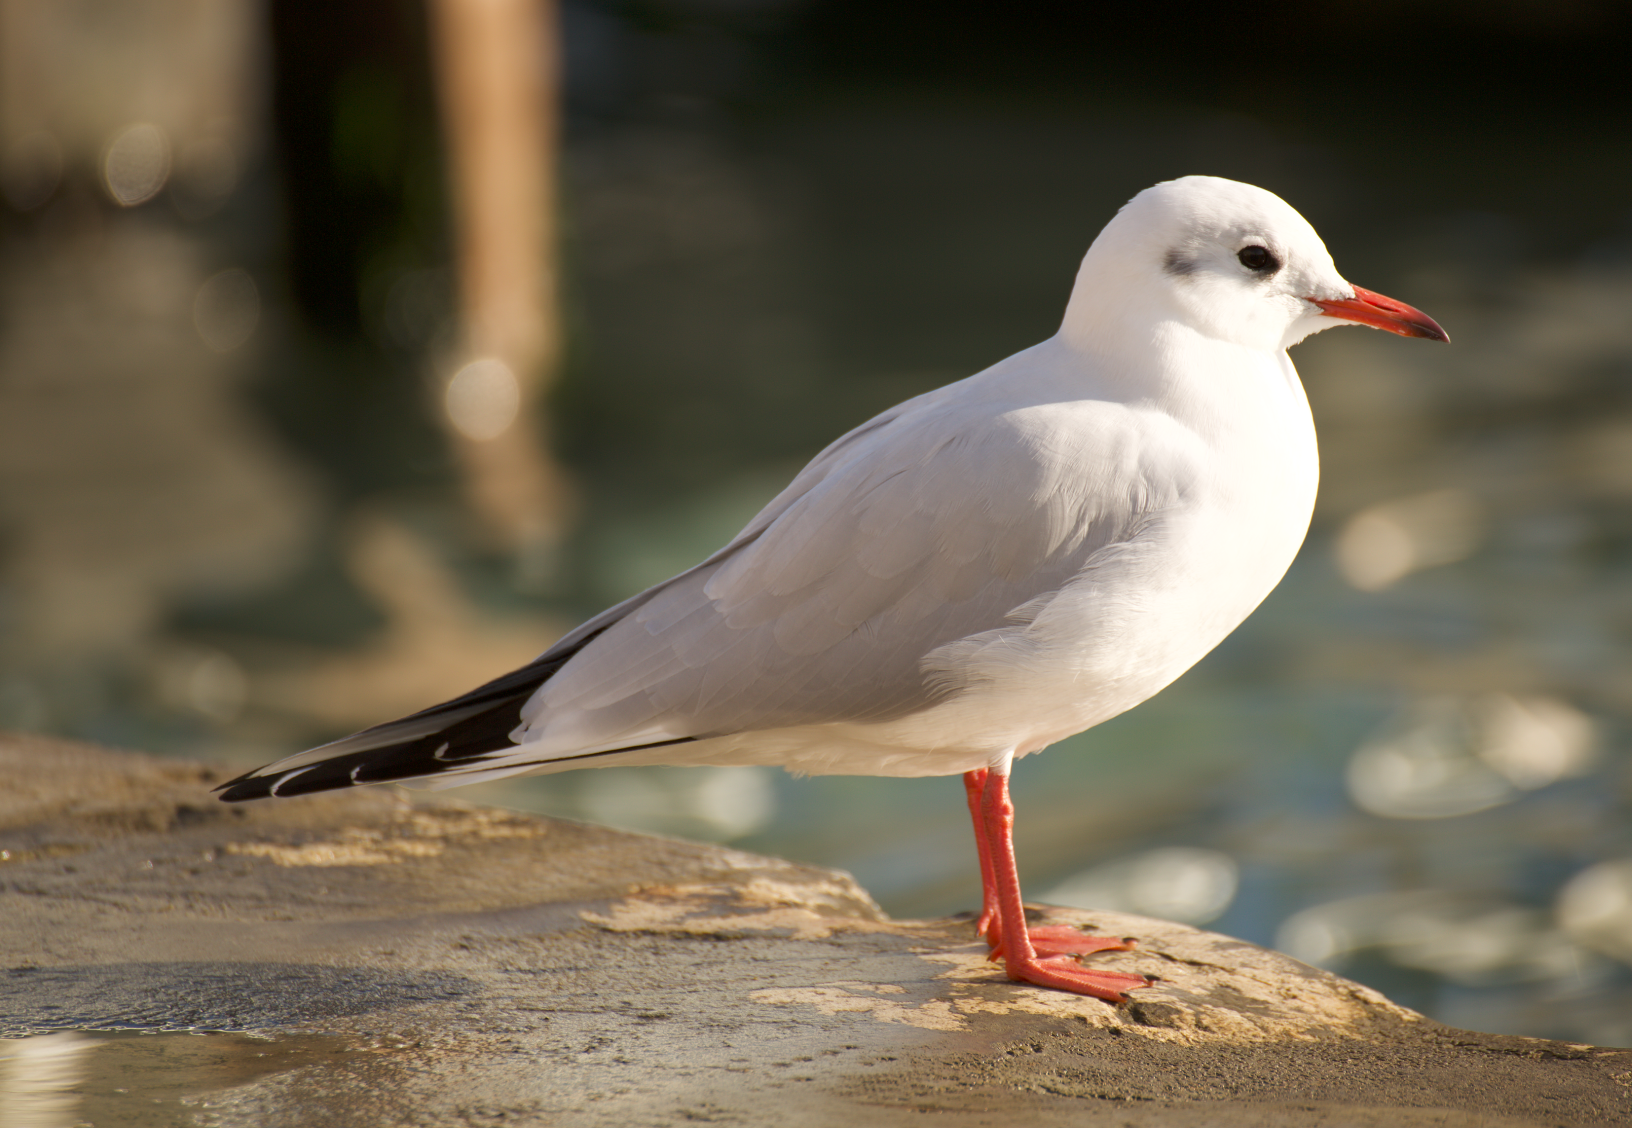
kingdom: Animalia
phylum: Chordata
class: Aves
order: Charadriiformes
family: Laridae
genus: Chroicocephalus
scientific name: Chroicocephalus ridibundus
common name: Black-headed gull
